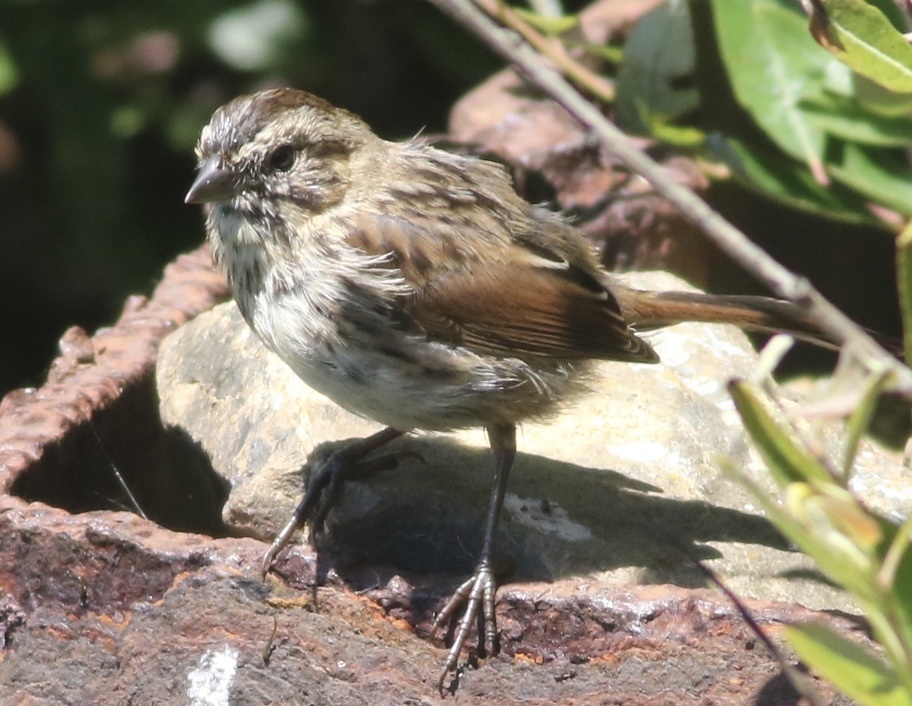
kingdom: Animalia
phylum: Chordata
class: Aves
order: Passeriformes
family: Passerellidae
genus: Melospiza
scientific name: Melospiza melodia
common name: Song sparrow
